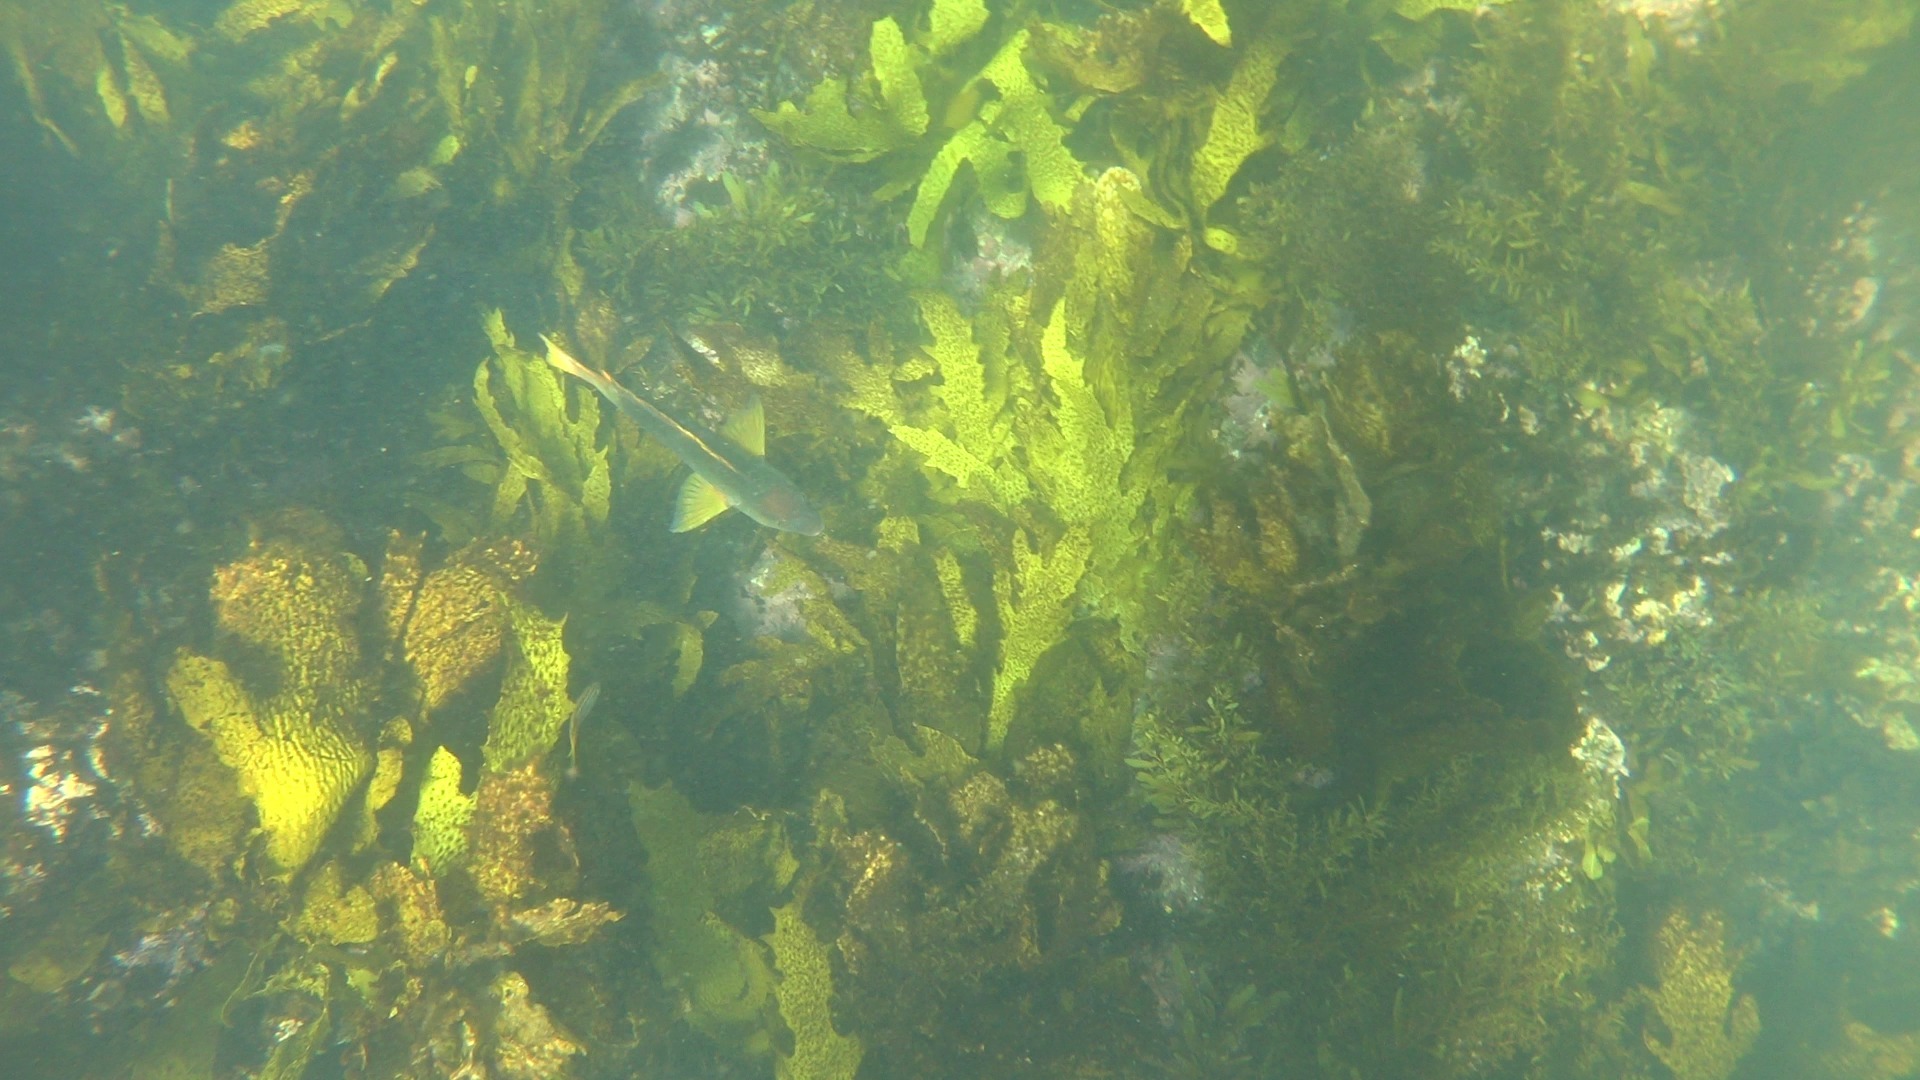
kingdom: Animalia
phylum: Chordata
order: Perciformes
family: Labridae
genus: Notolabrus
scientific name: Notolabrus gymnogenis
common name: Crimson banded wrasse
